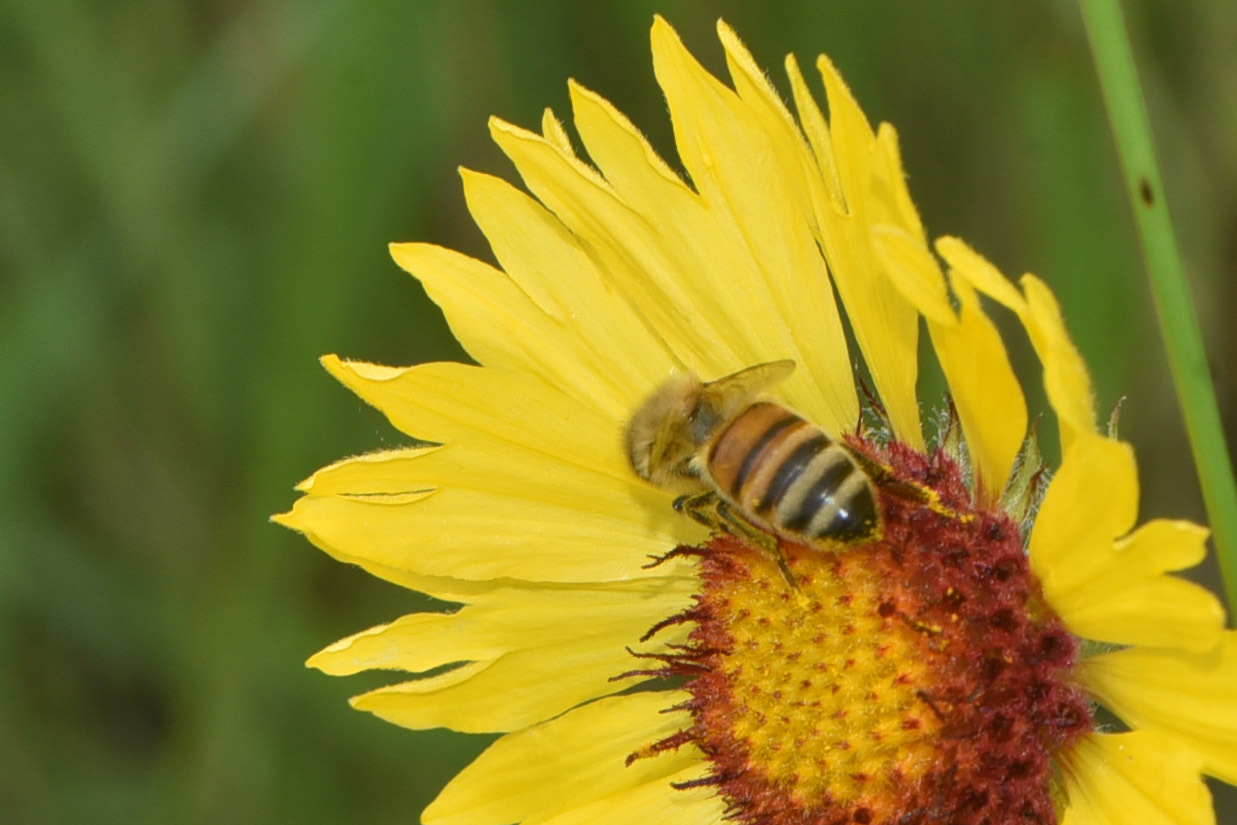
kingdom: Animalia
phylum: Arthropoda
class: Insecta
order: Hymenoptera
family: Apidae
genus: Apis
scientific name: Apis mellifera
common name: Honey bee
